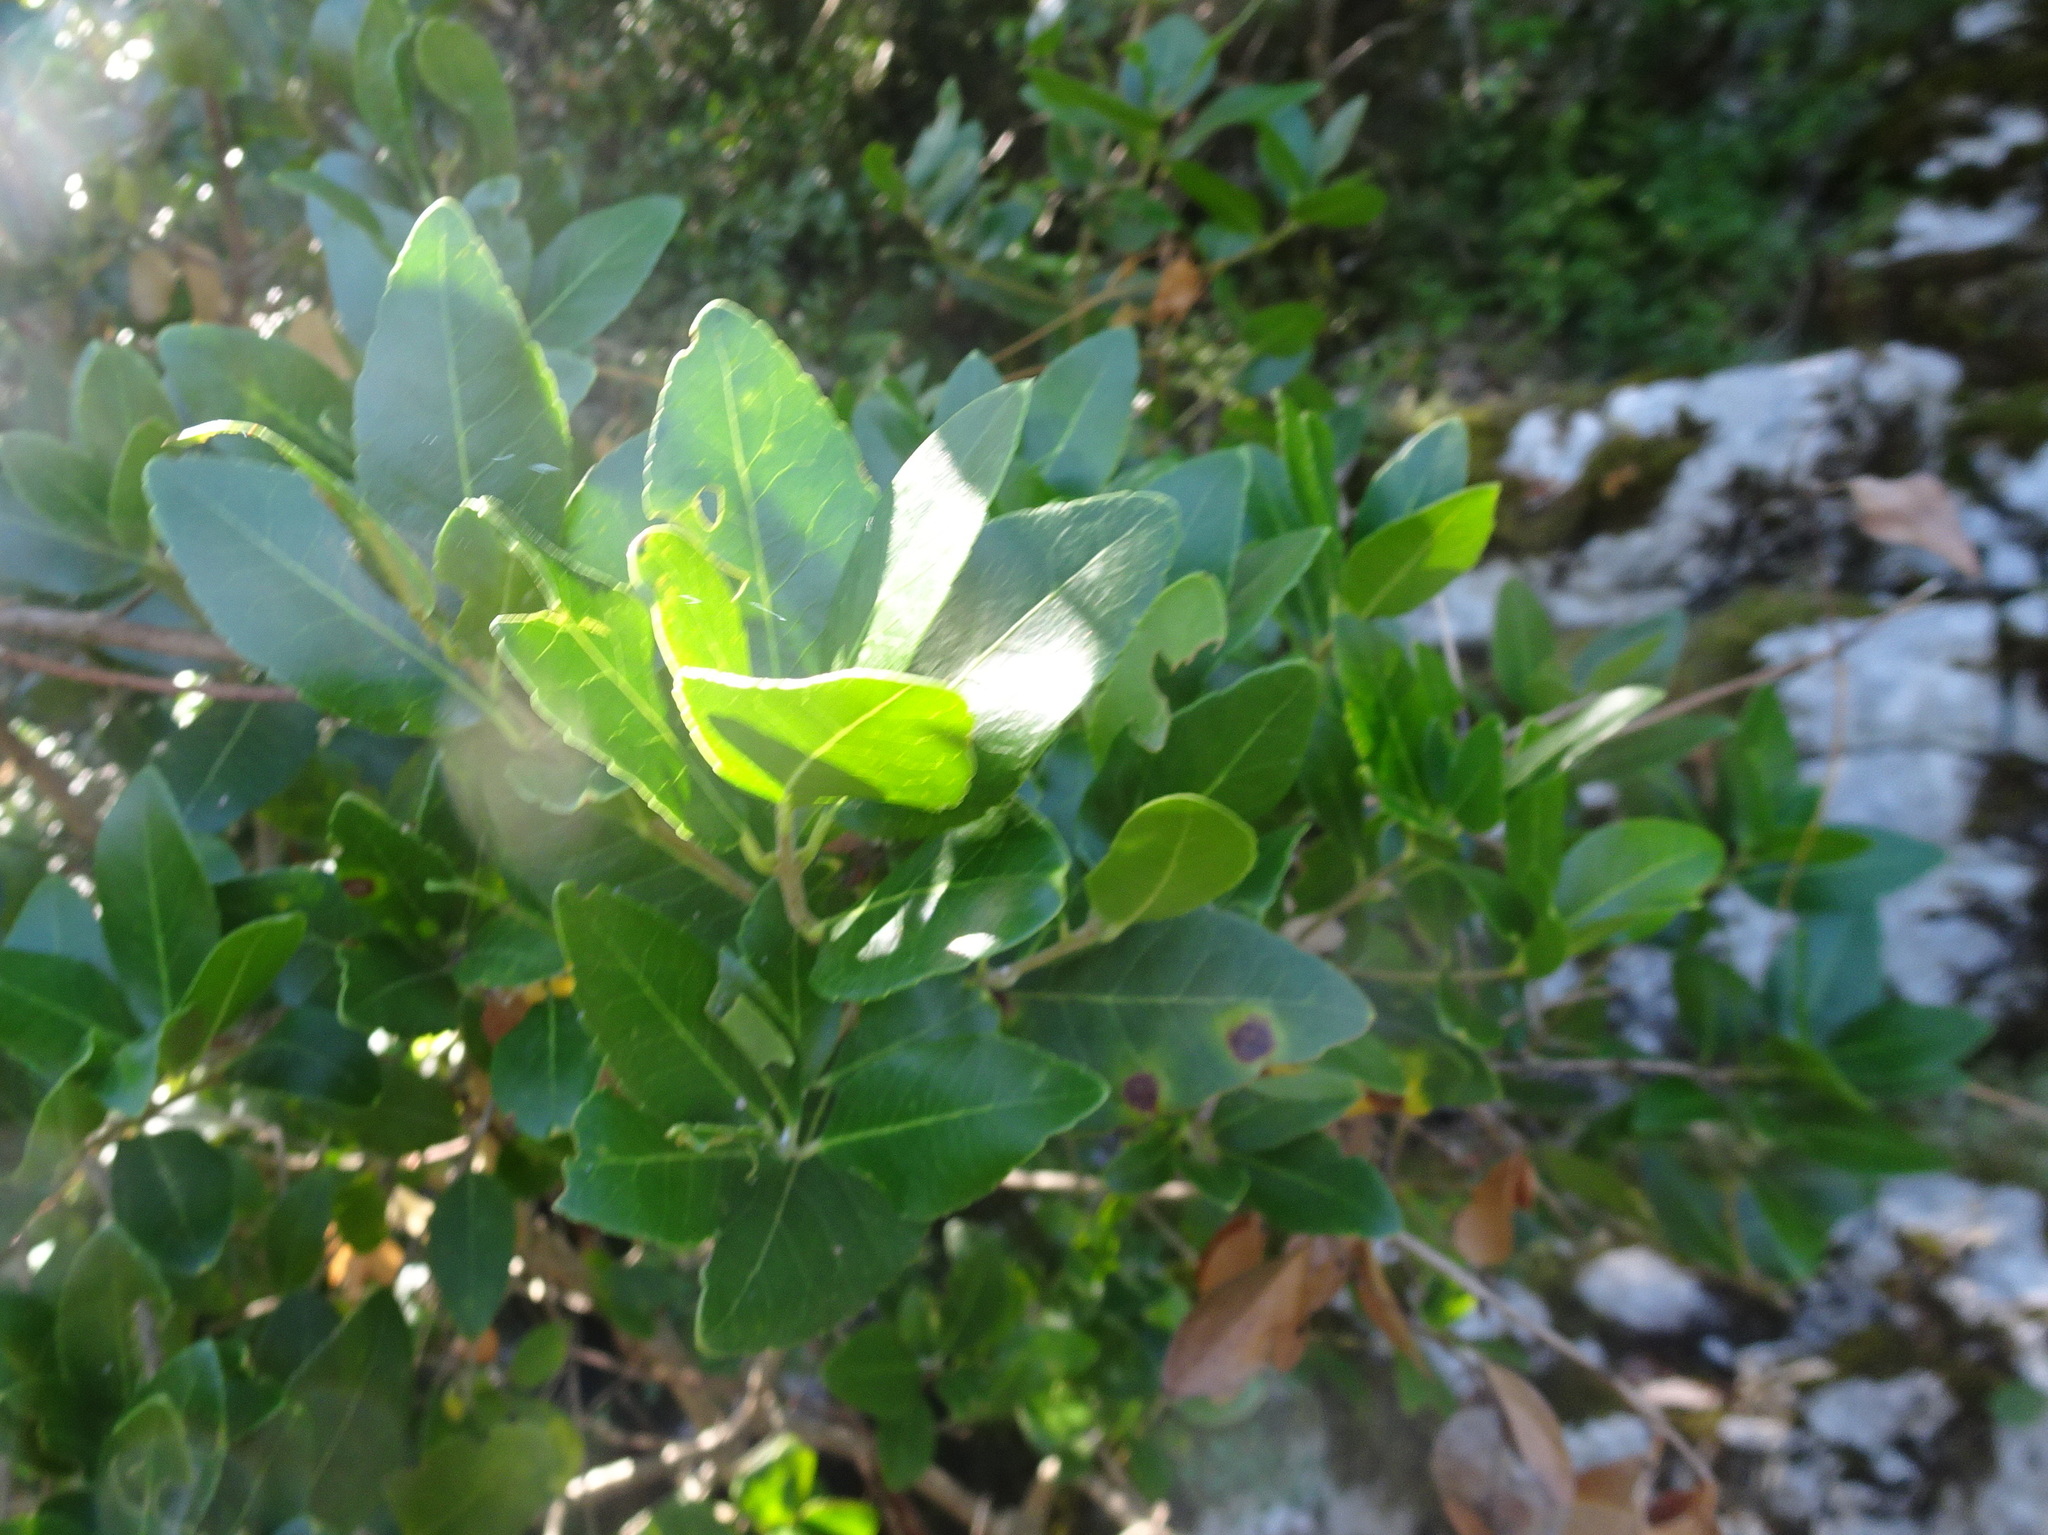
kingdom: Plantae
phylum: Tracheophyta
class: Magnoliopsida
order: Lamiales
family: Oleaceae
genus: Phillyrea
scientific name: Phillyrea latifolia
